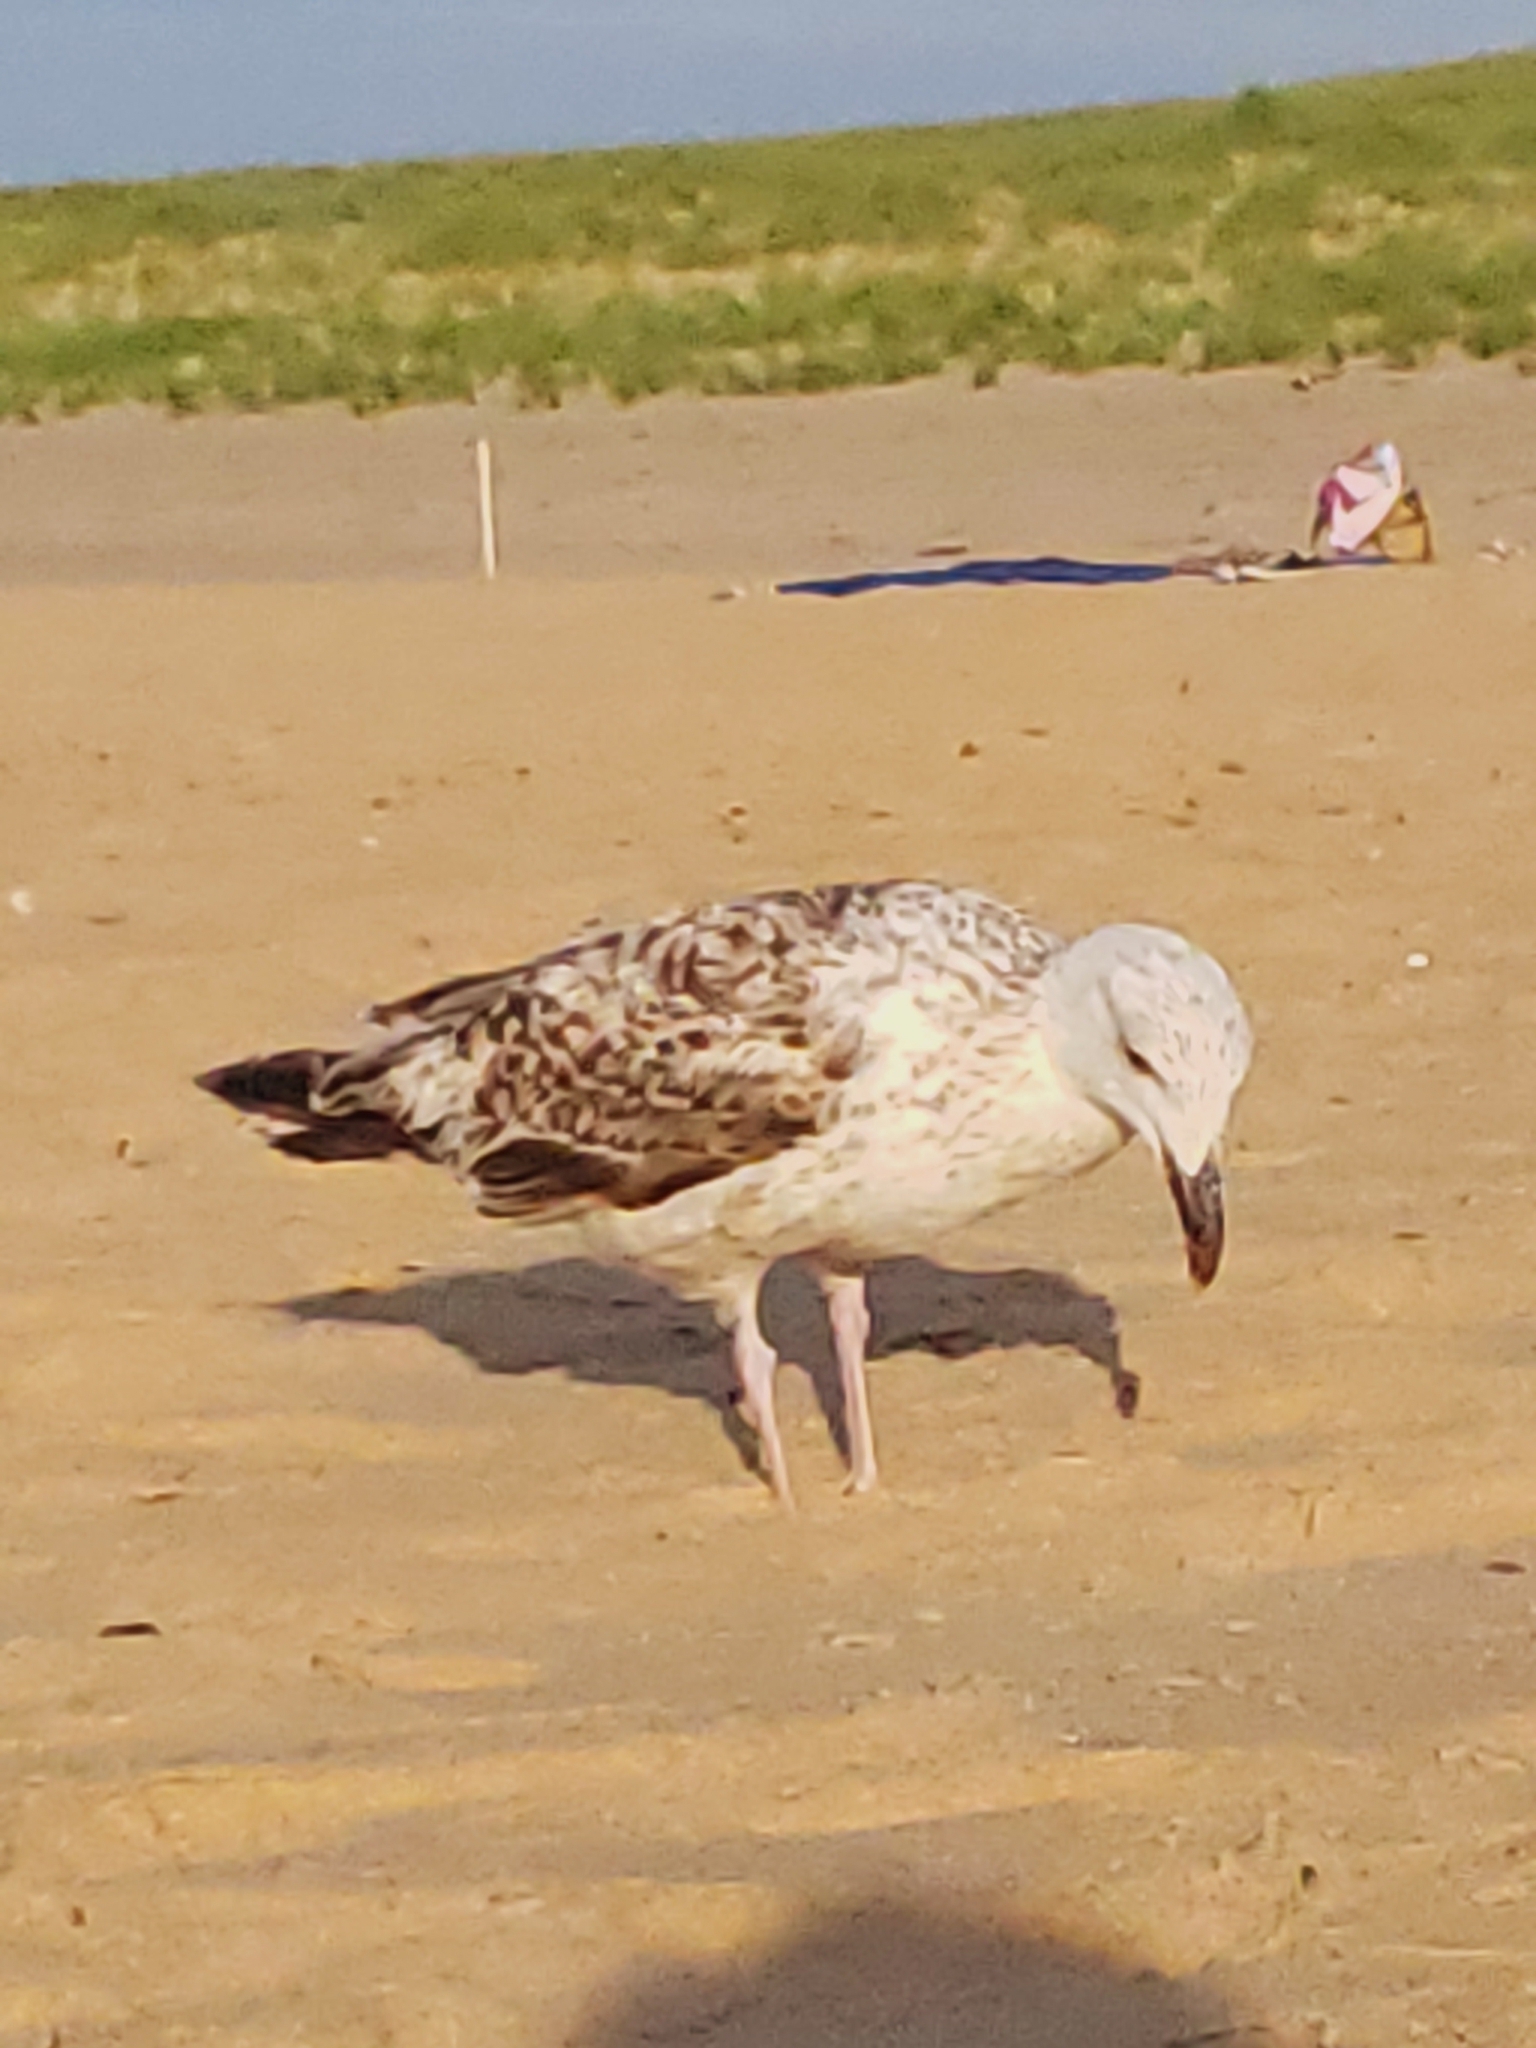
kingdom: Animalia
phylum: Chordata
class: Aves
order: Charadriiformes
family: Laridae
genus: Larus
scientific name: Larus marinus
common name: Great black-backed gull
